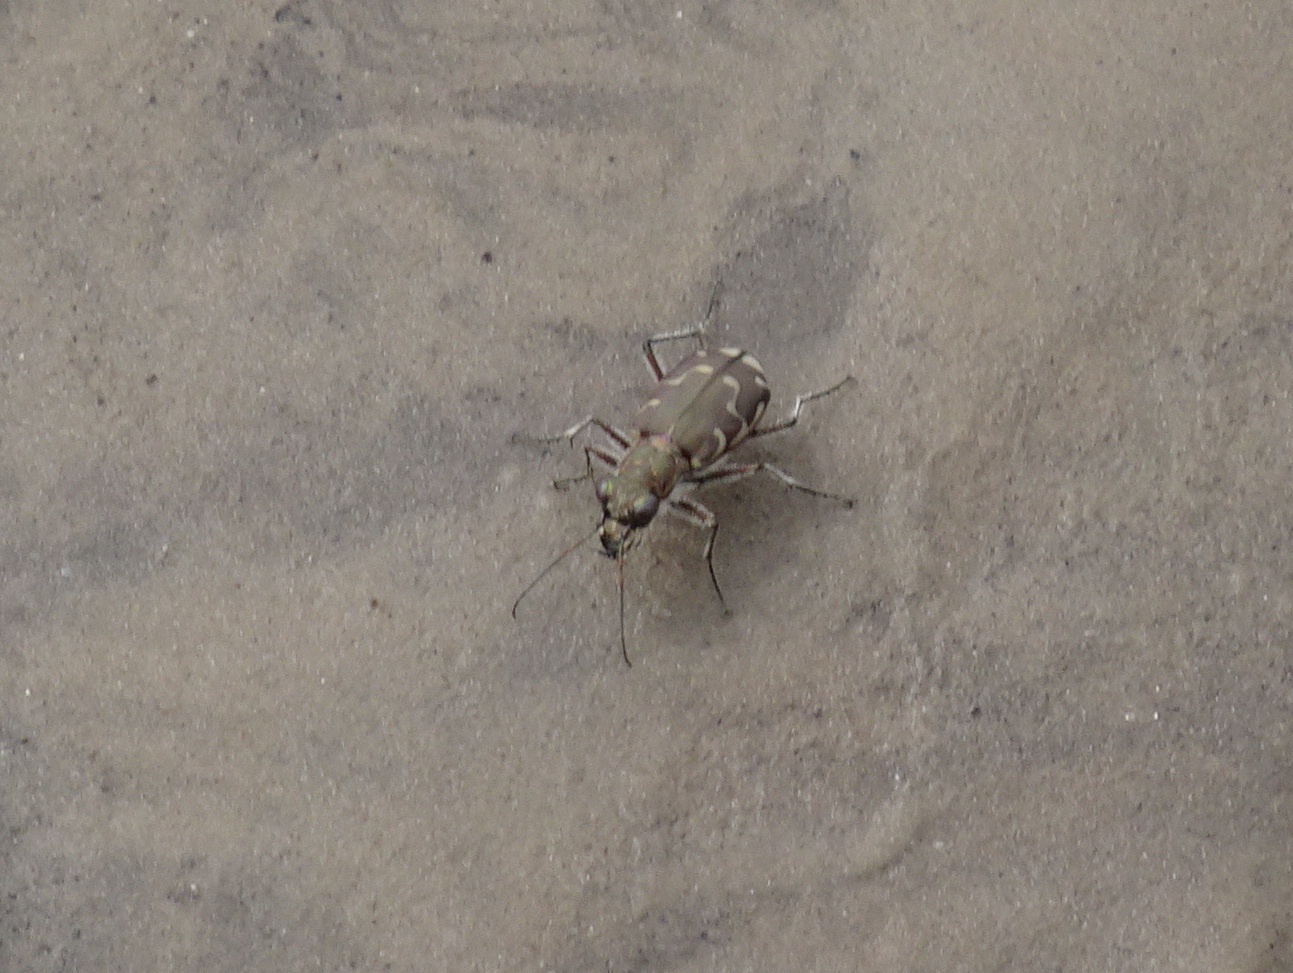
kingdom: Animalia
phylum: Arthropoda
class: Insecta
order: Coleoptera
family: Carabidae
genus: Cicindela
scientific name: Cicindela repanda
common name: Bronzed tiger beetle
